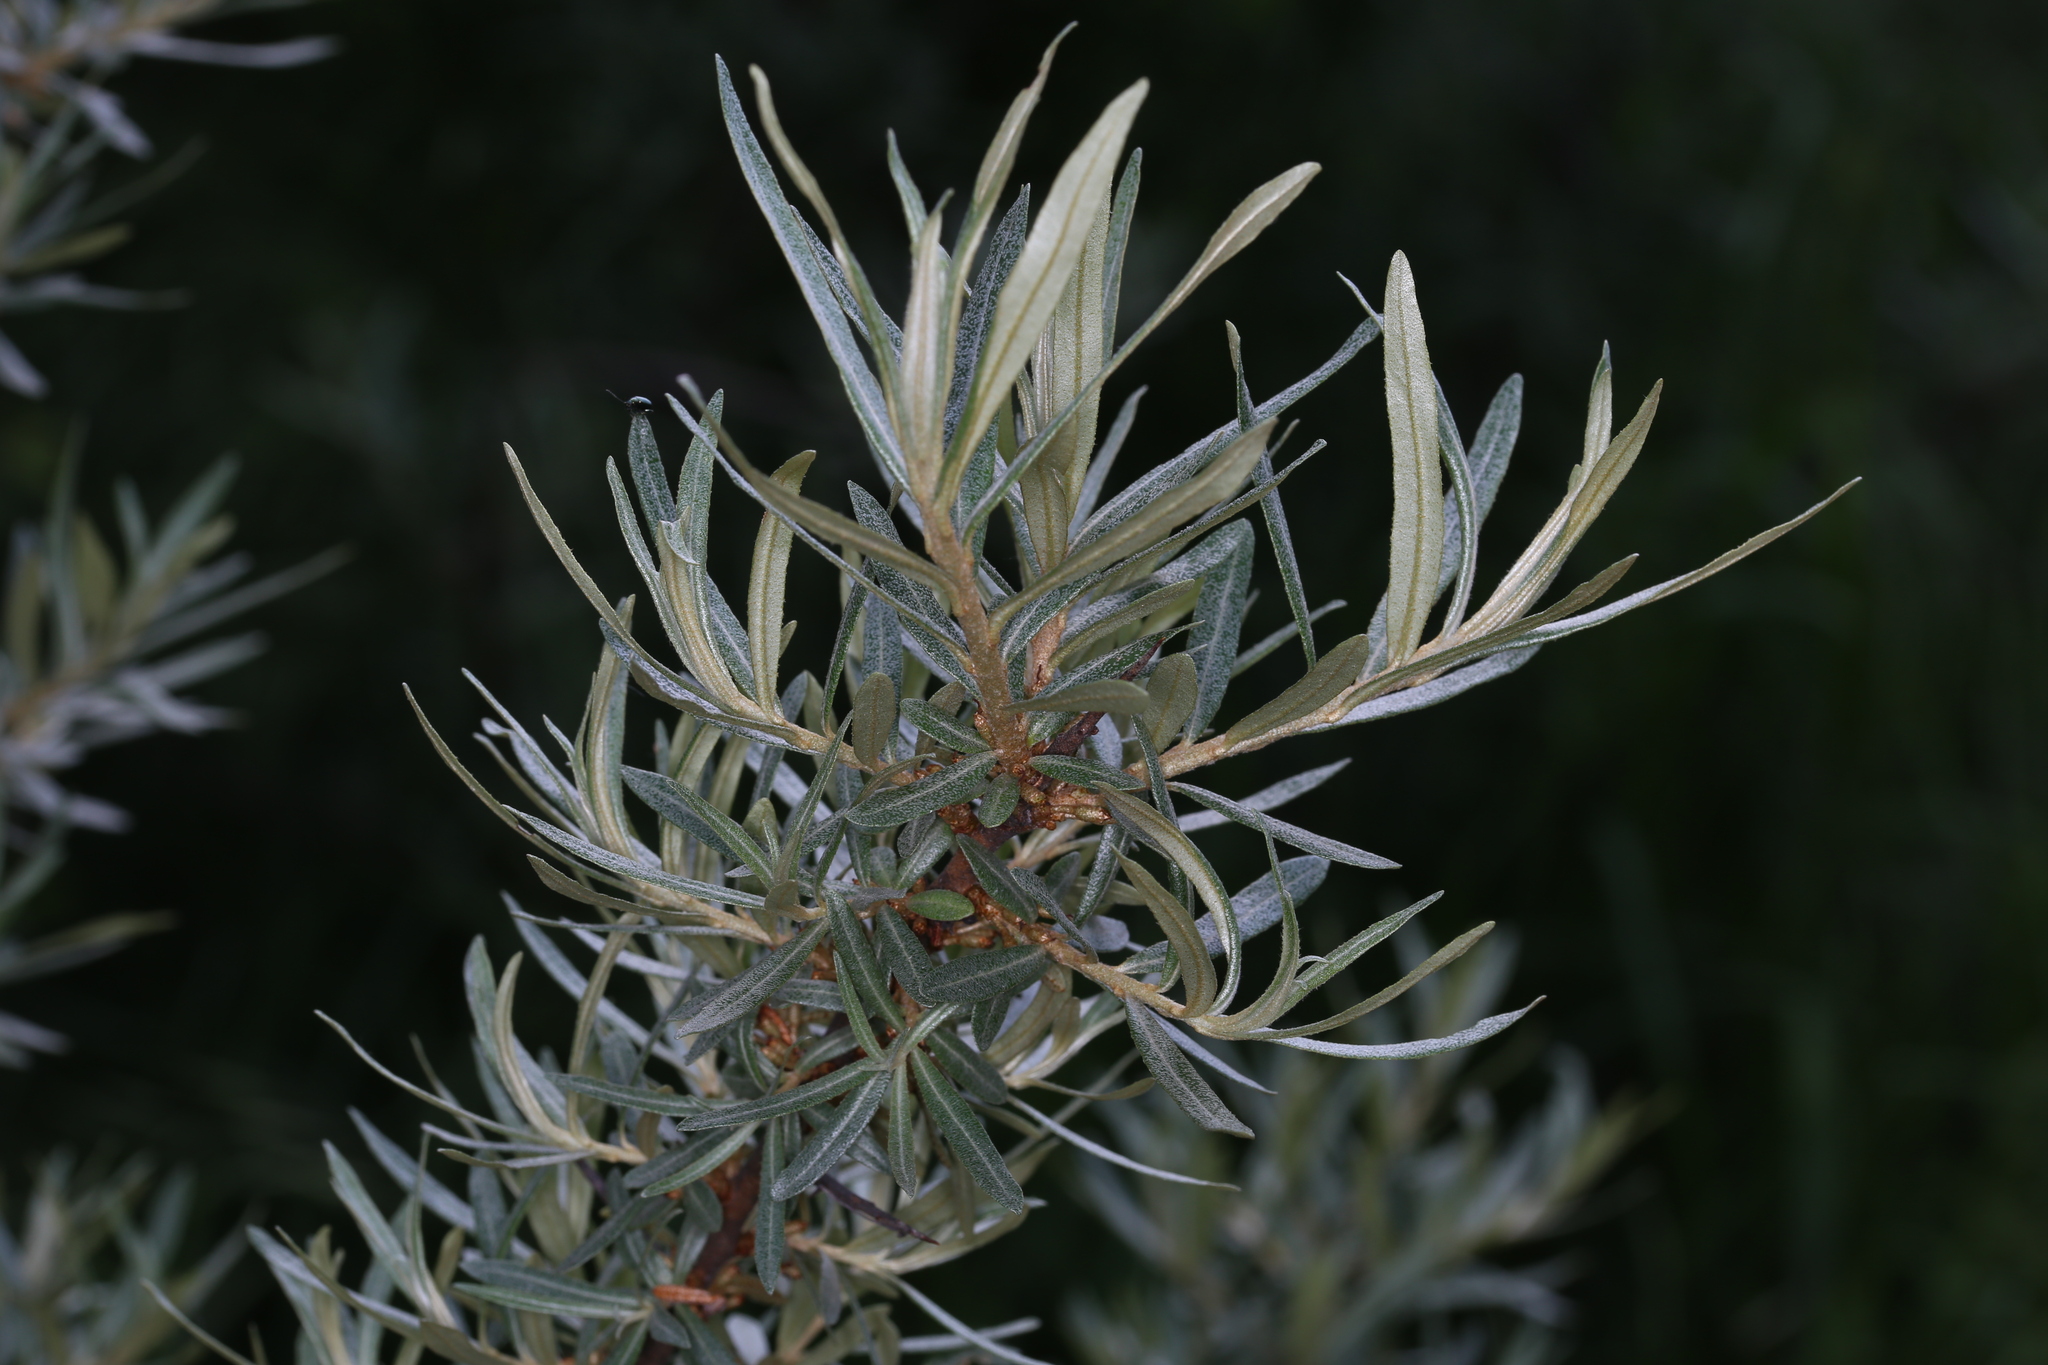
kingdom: Plantae
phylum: Tracheophyta
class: Magnoliopsida
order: Rosales
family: Elaeagnaceae
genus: Hippophae
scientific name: Hippophae rhamnoides
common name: Sea-buckthorn
